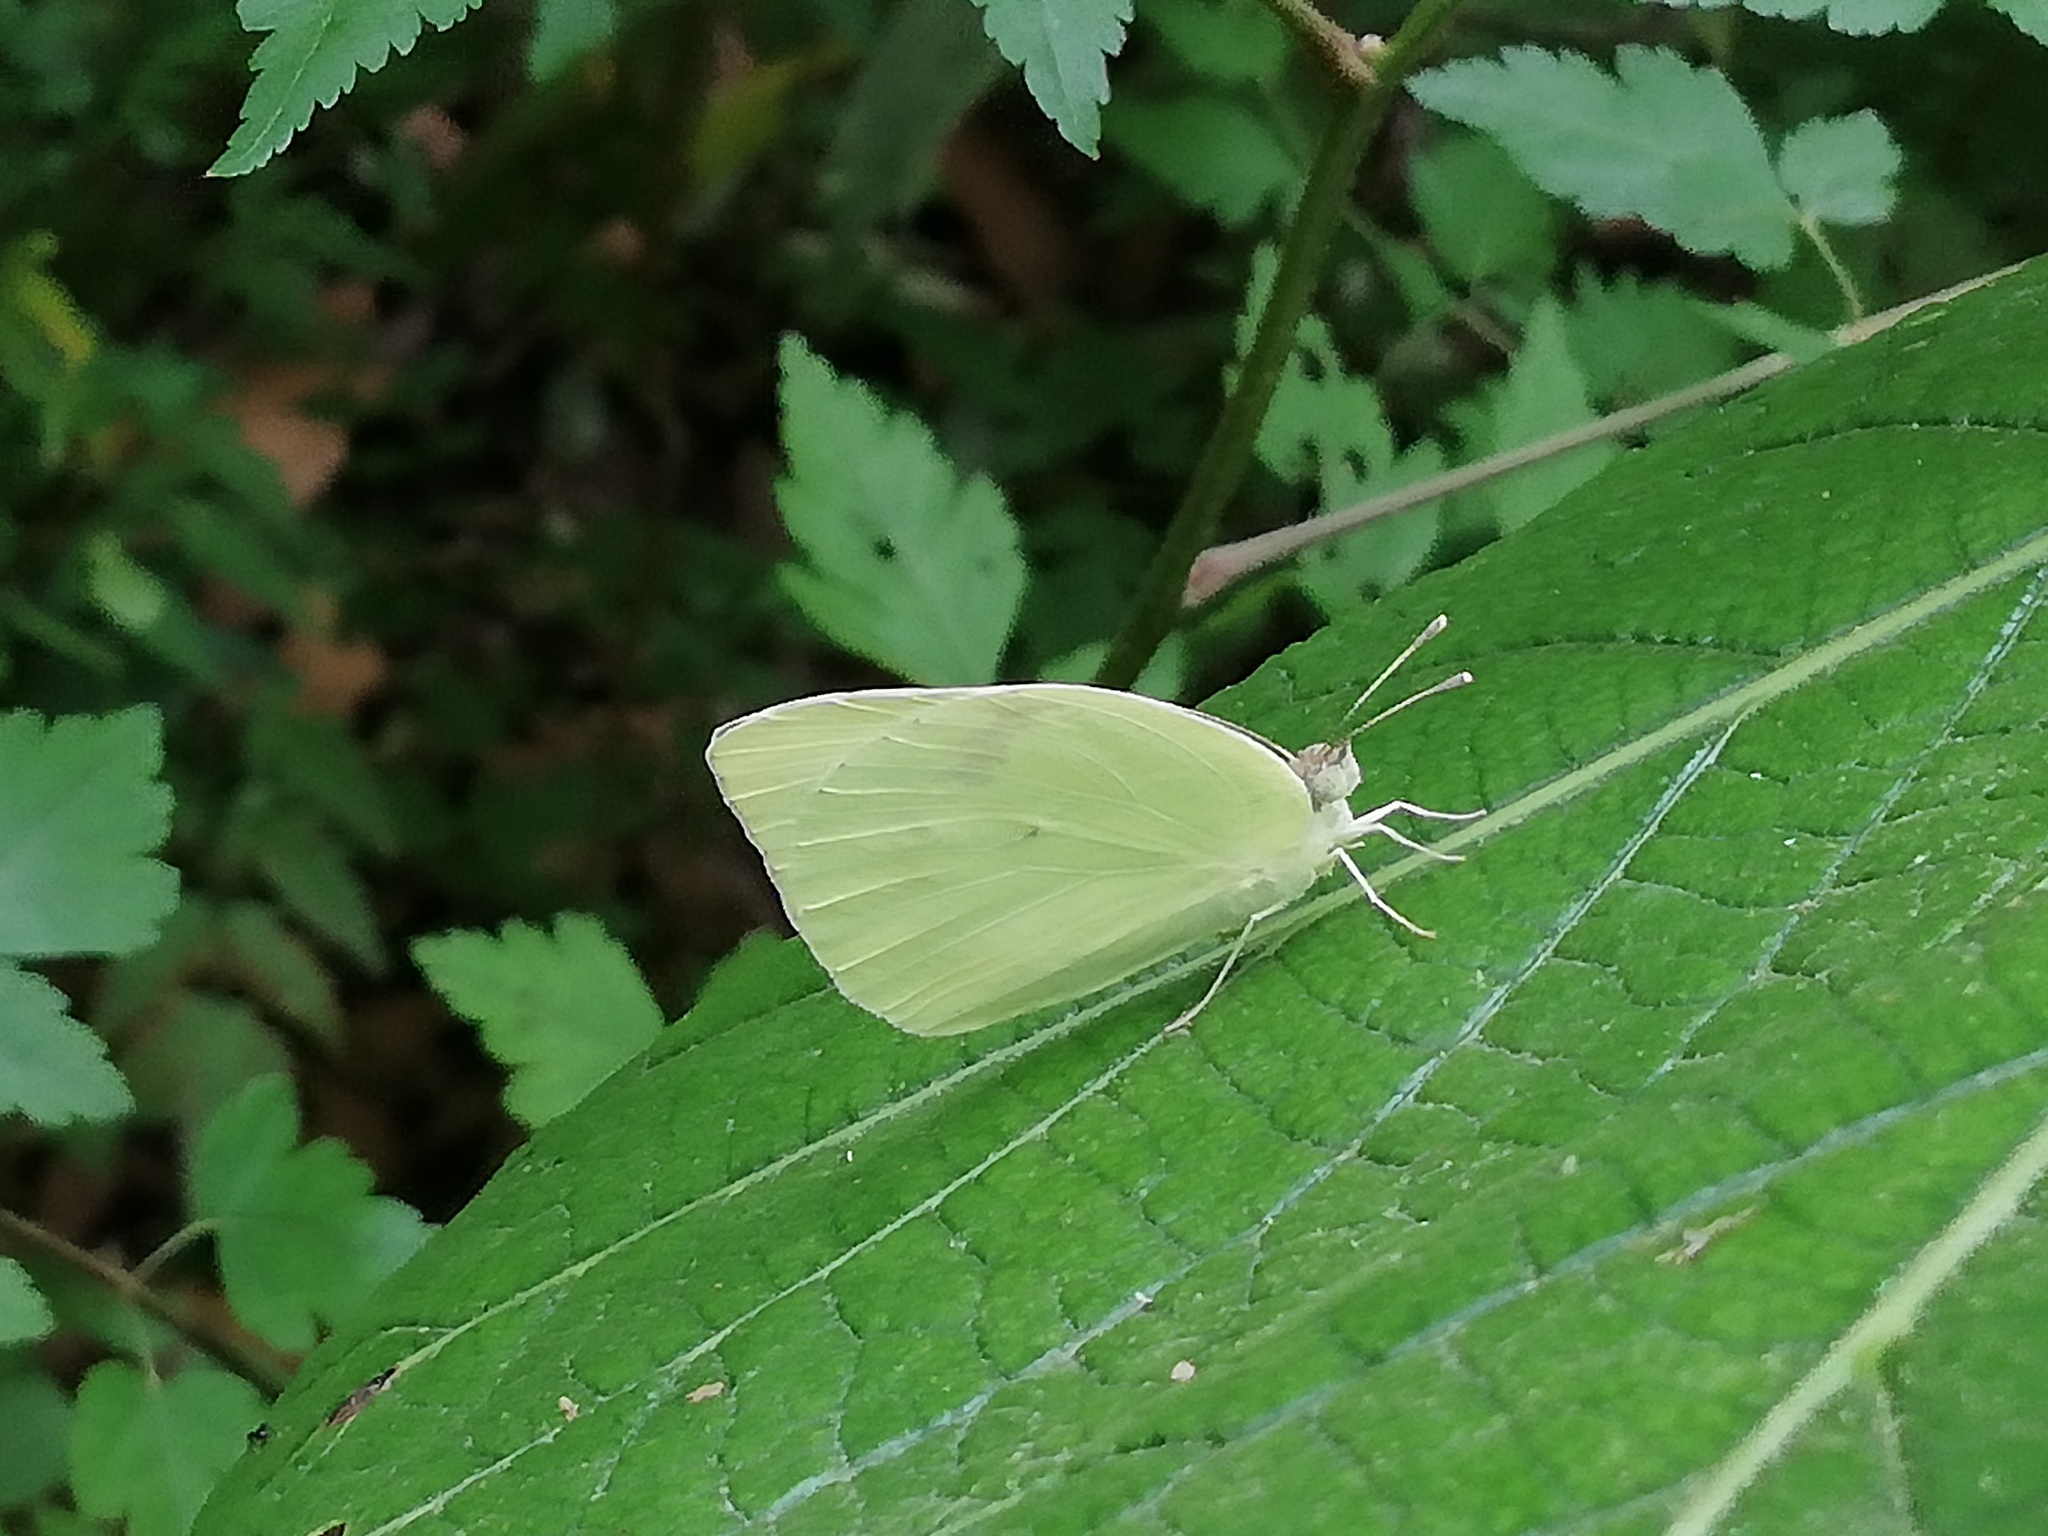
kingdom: Animalia
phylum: Arthropoda
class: Insecta
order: Lepidoptera
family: Pieridae
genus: Kricogonia
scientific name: Kricogonia lyside
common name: Guayacan sulphur,
